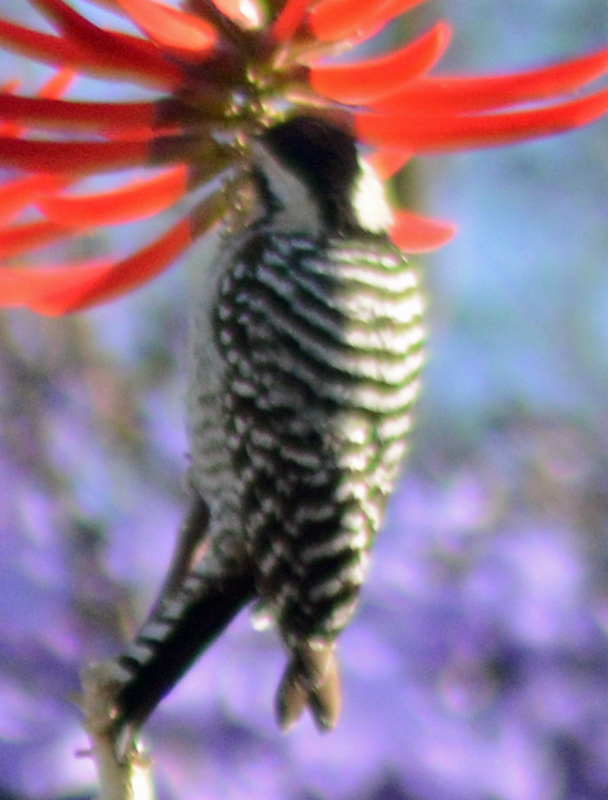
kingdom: Animalia
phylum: Chordata
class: Aves
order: Piciformes
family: Picidae
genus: Dryobates
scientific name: Dryobates scalaris
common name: Ladder-backed woodpecker
